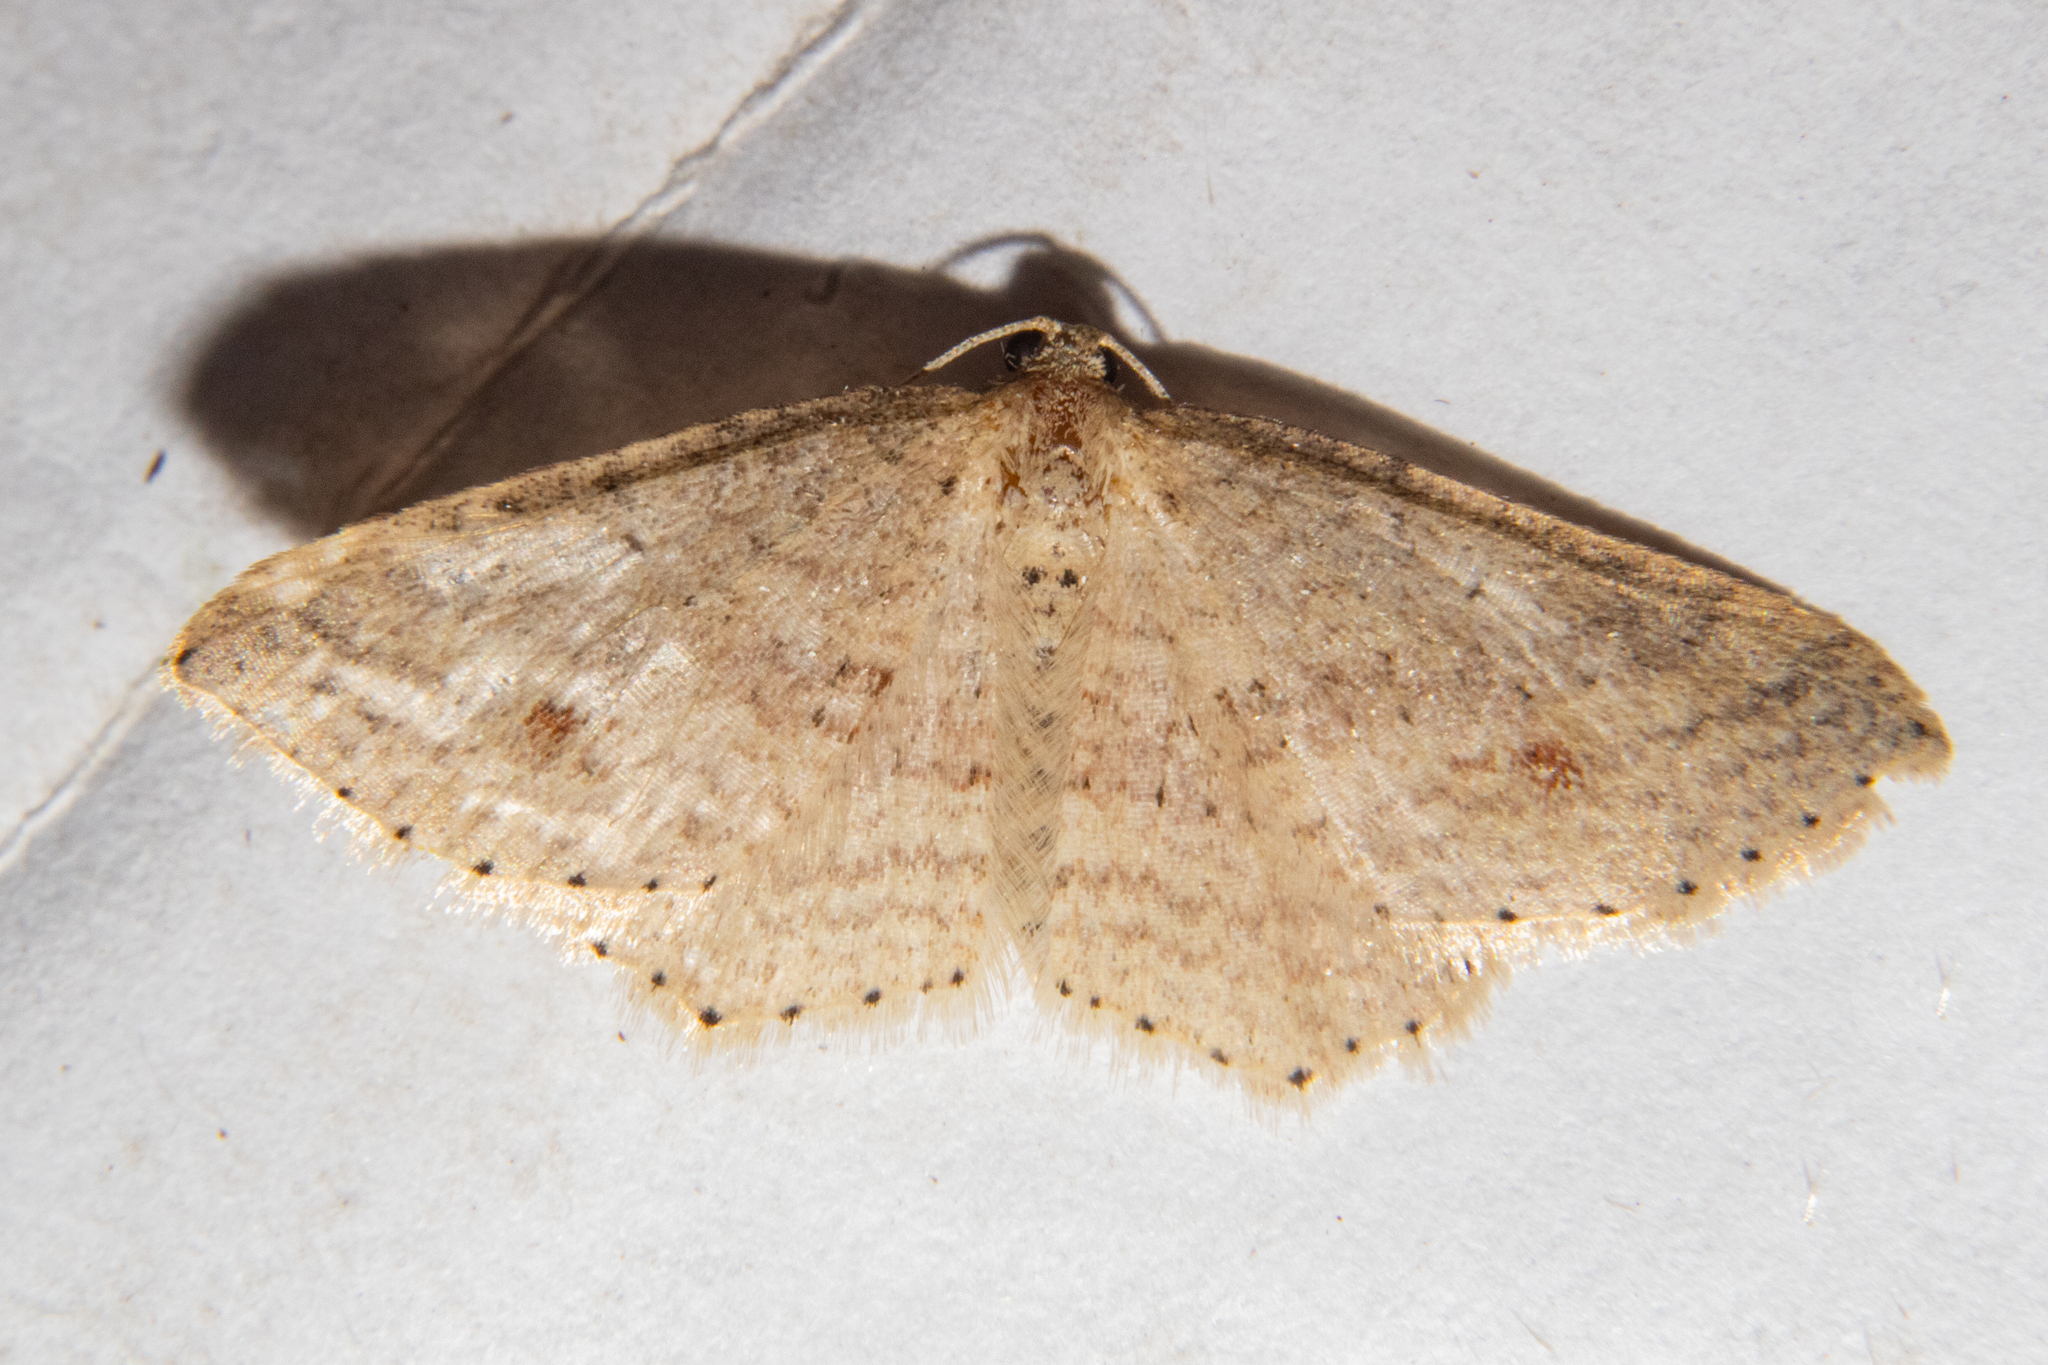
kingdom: Animalia
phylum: Arthropoda
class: Insecta
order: Lepidoptera
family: Geometridae
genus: Epicyme
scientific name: Epicyme rubropunctaria
